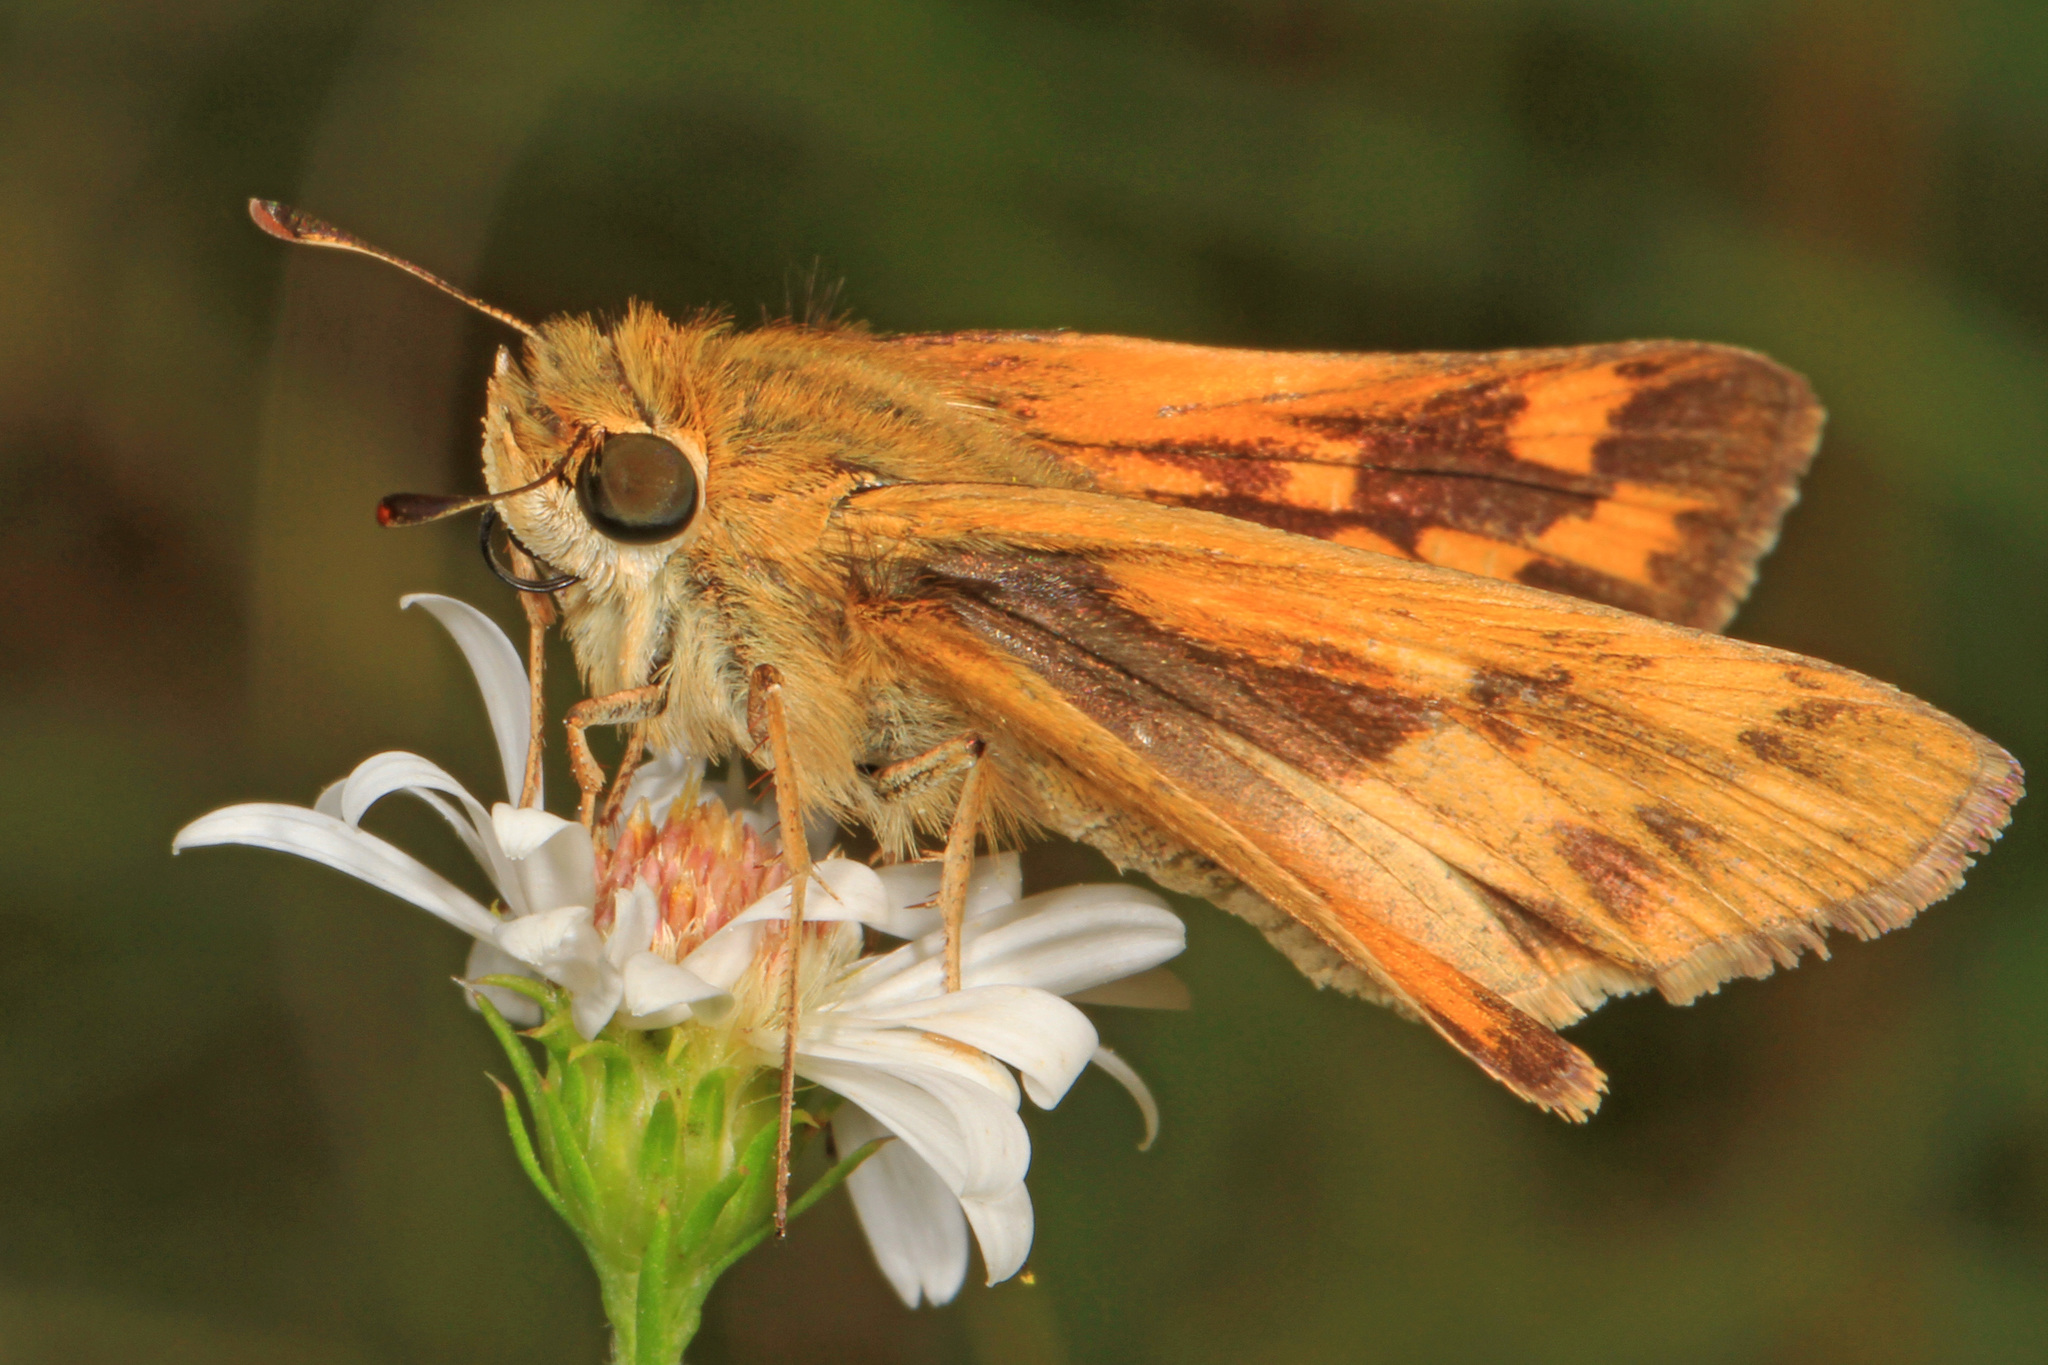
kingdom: Animalia
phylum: Arthropoda
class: Insecta
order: Lepidoptera
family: Hesperiidae
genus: Hylephila
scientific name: Hylephila phyleus
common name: Fiery skipper
